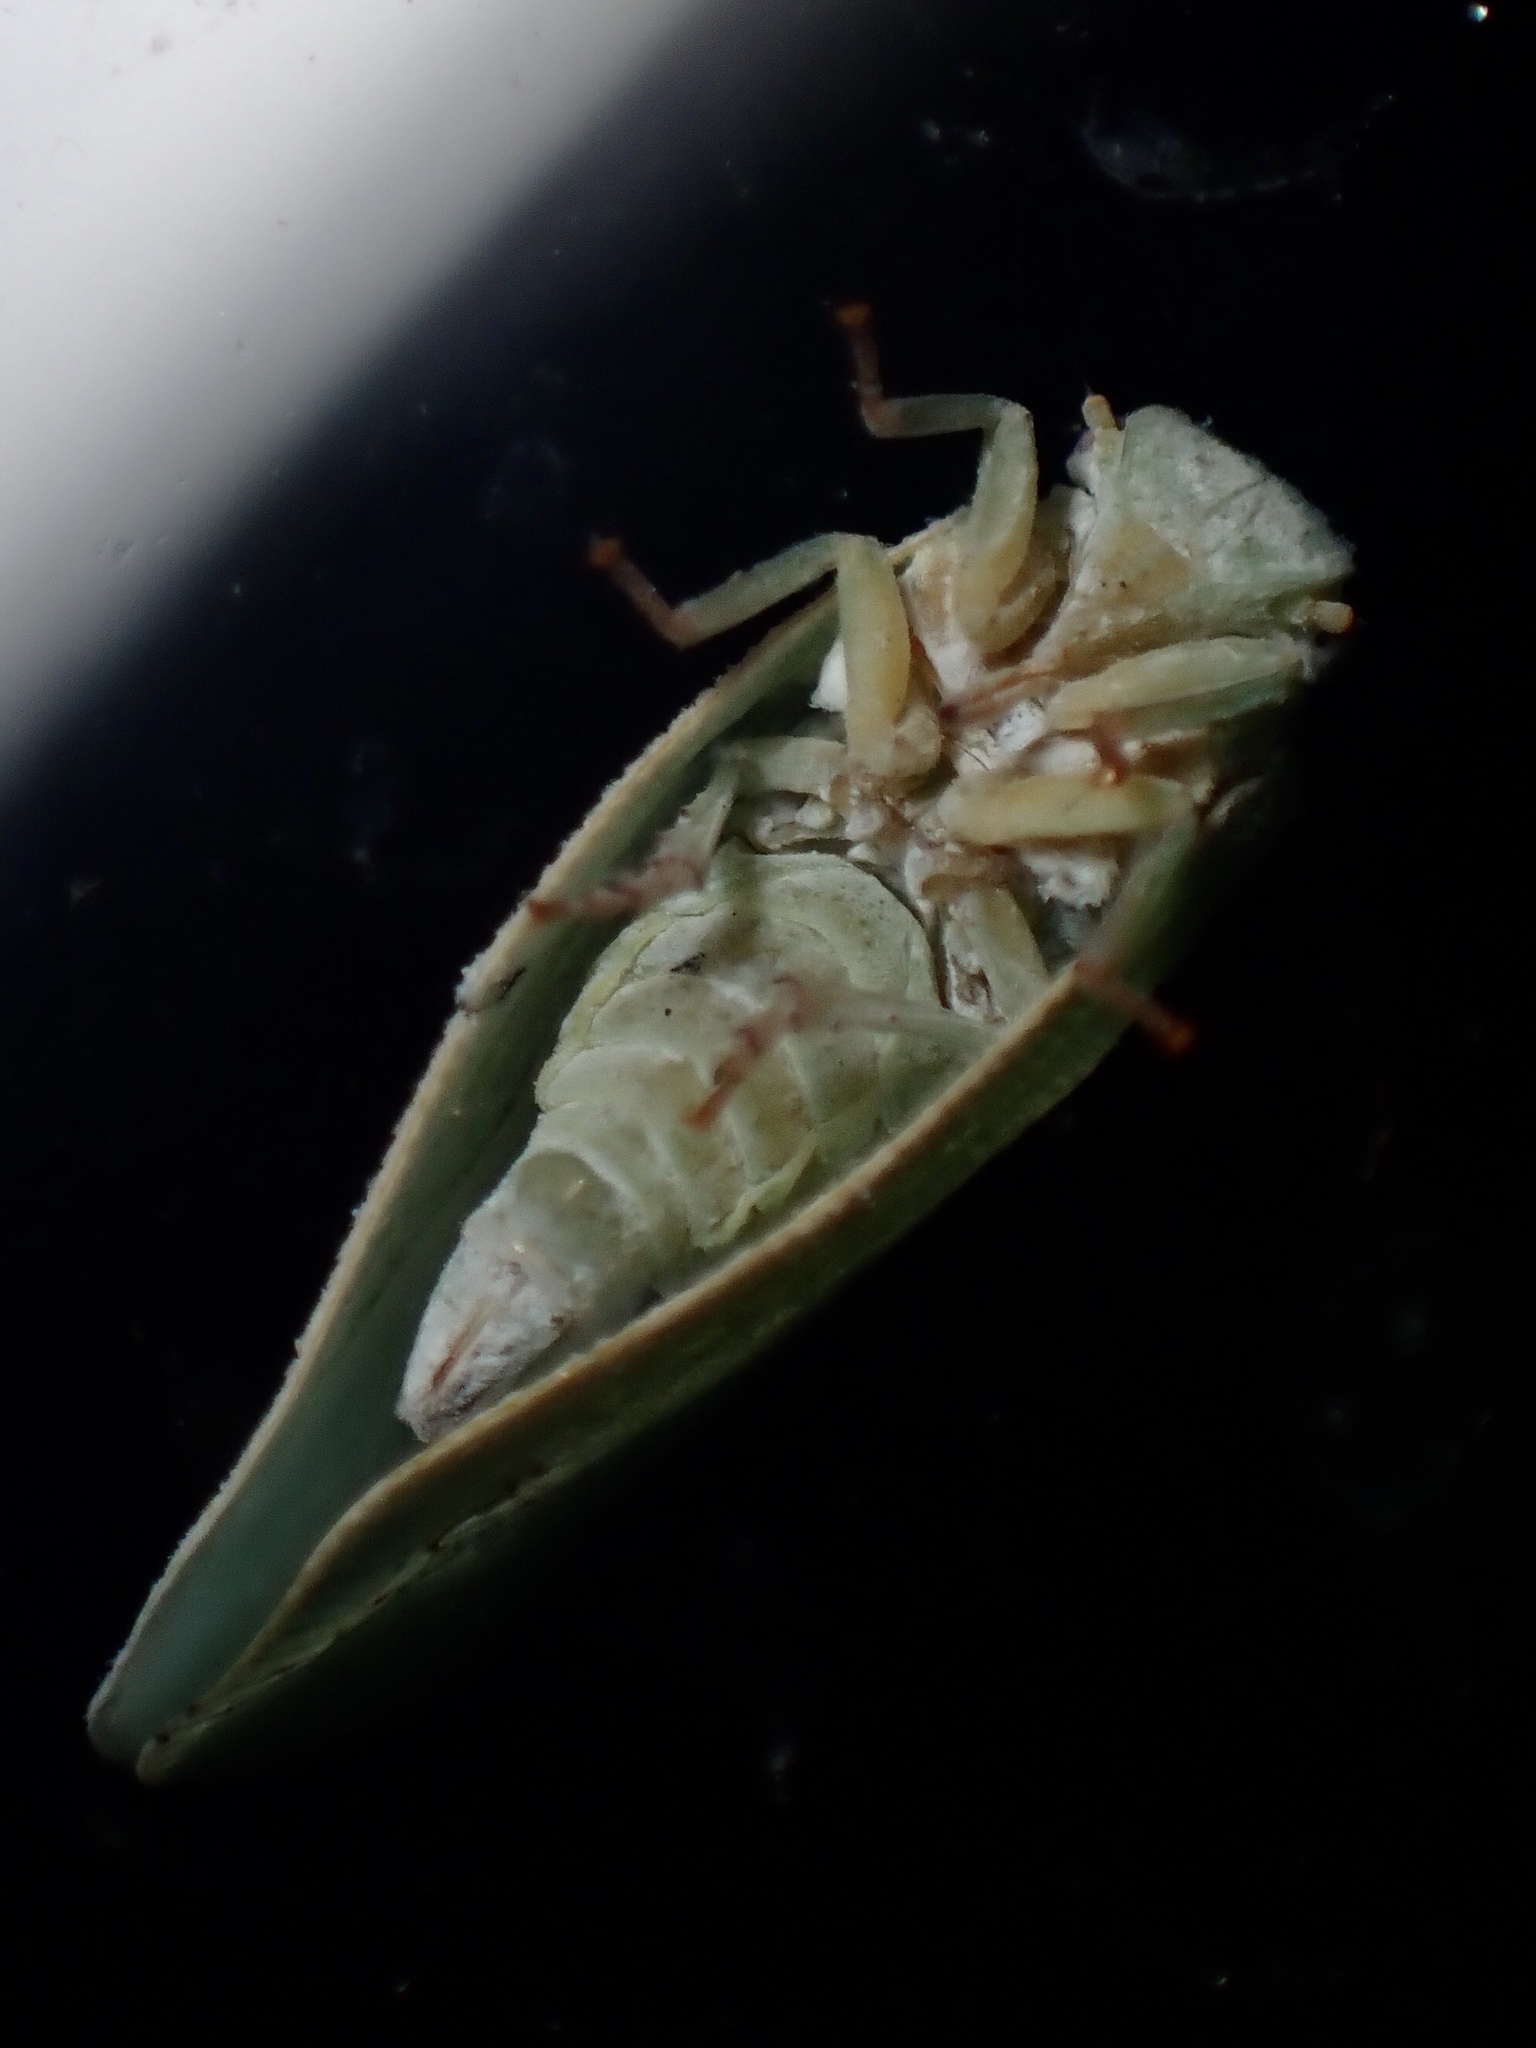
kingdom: Animalia
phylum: Arthropoda
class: Insecta
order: Hemiptera
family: Flatidae
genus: Flatormenis
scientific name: Flatormenis proxima
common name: Northern flatid planthopper
